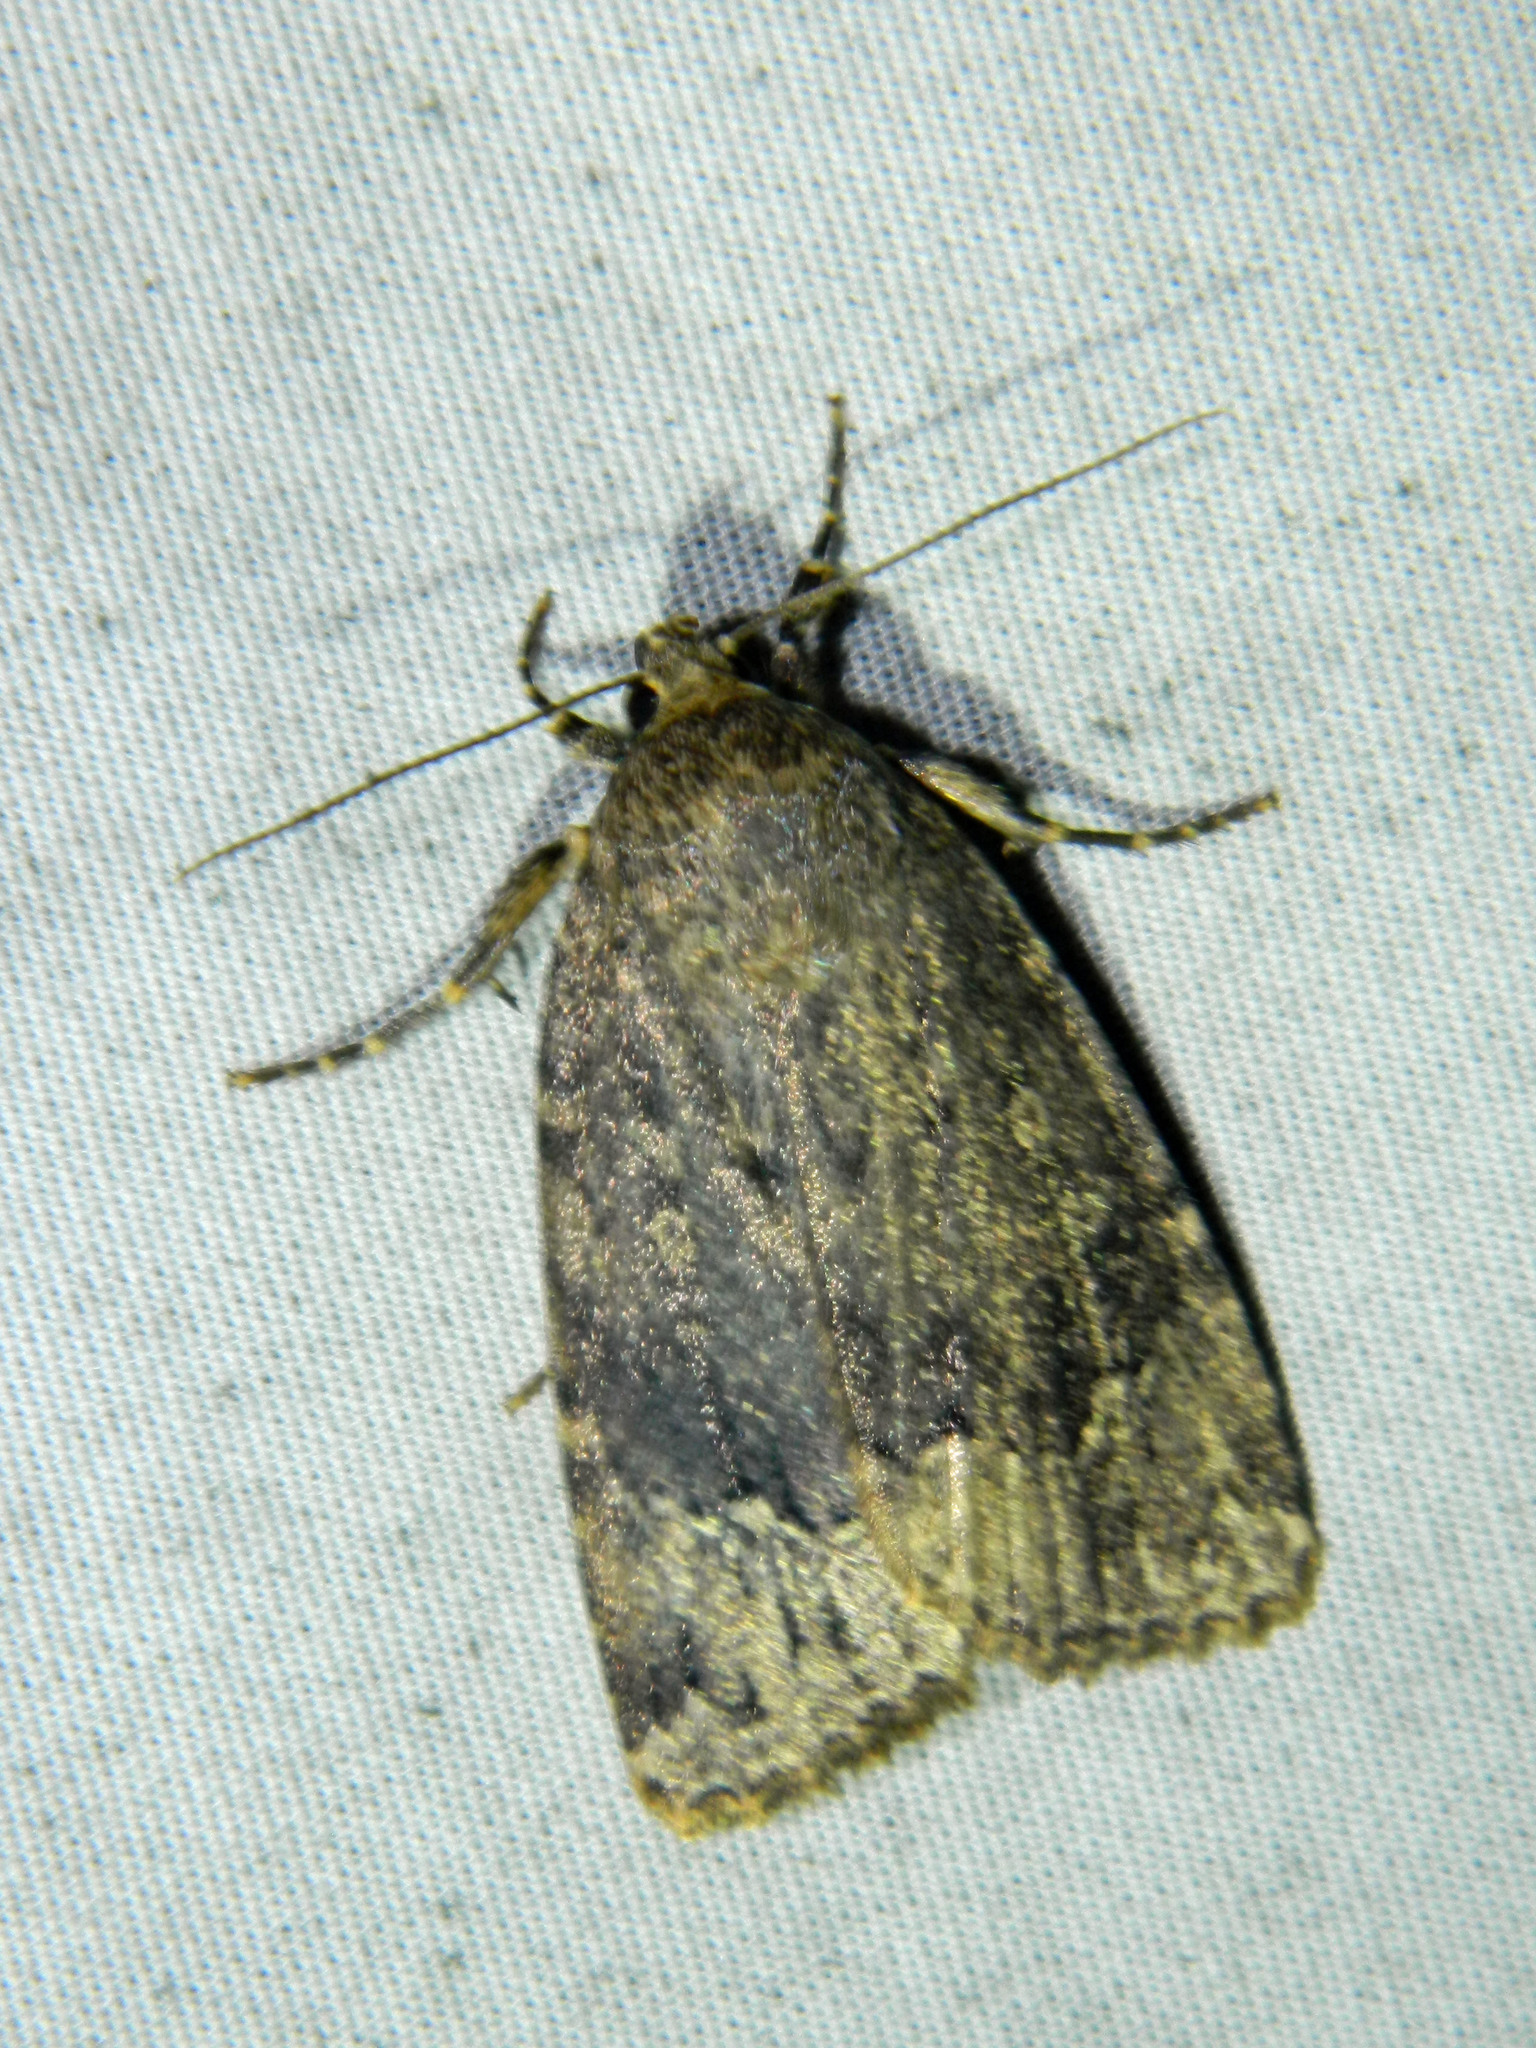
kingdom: Animalia
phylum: Arthropoda
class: Insecta
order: Lepidoptera
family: Noctuidae
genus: Amphipyra
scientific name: Amphipyra pyramidoides
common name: American copper underwing
